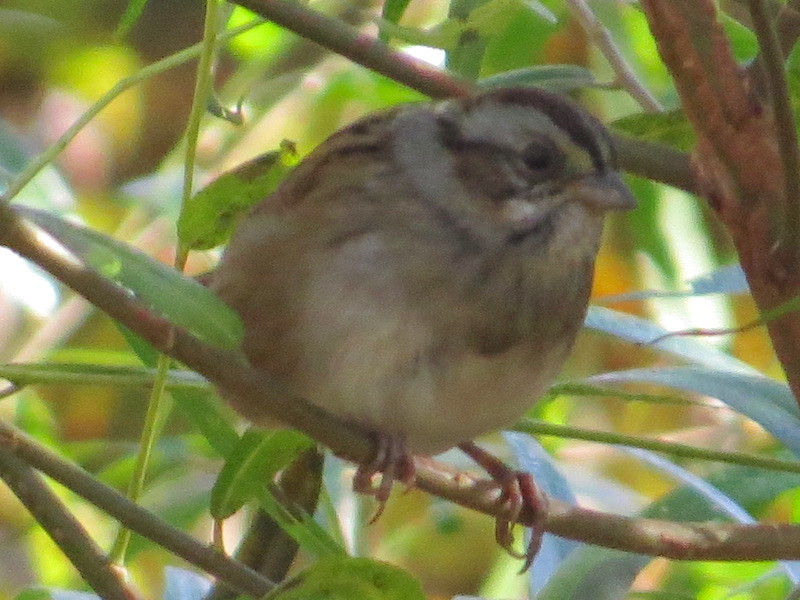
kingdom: Animalia
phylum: Chordata
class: Aves
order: Passeriformes
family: Passerellidae
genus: Melospiza
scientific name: Melospiza georgiana
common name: Swamp sparrow
